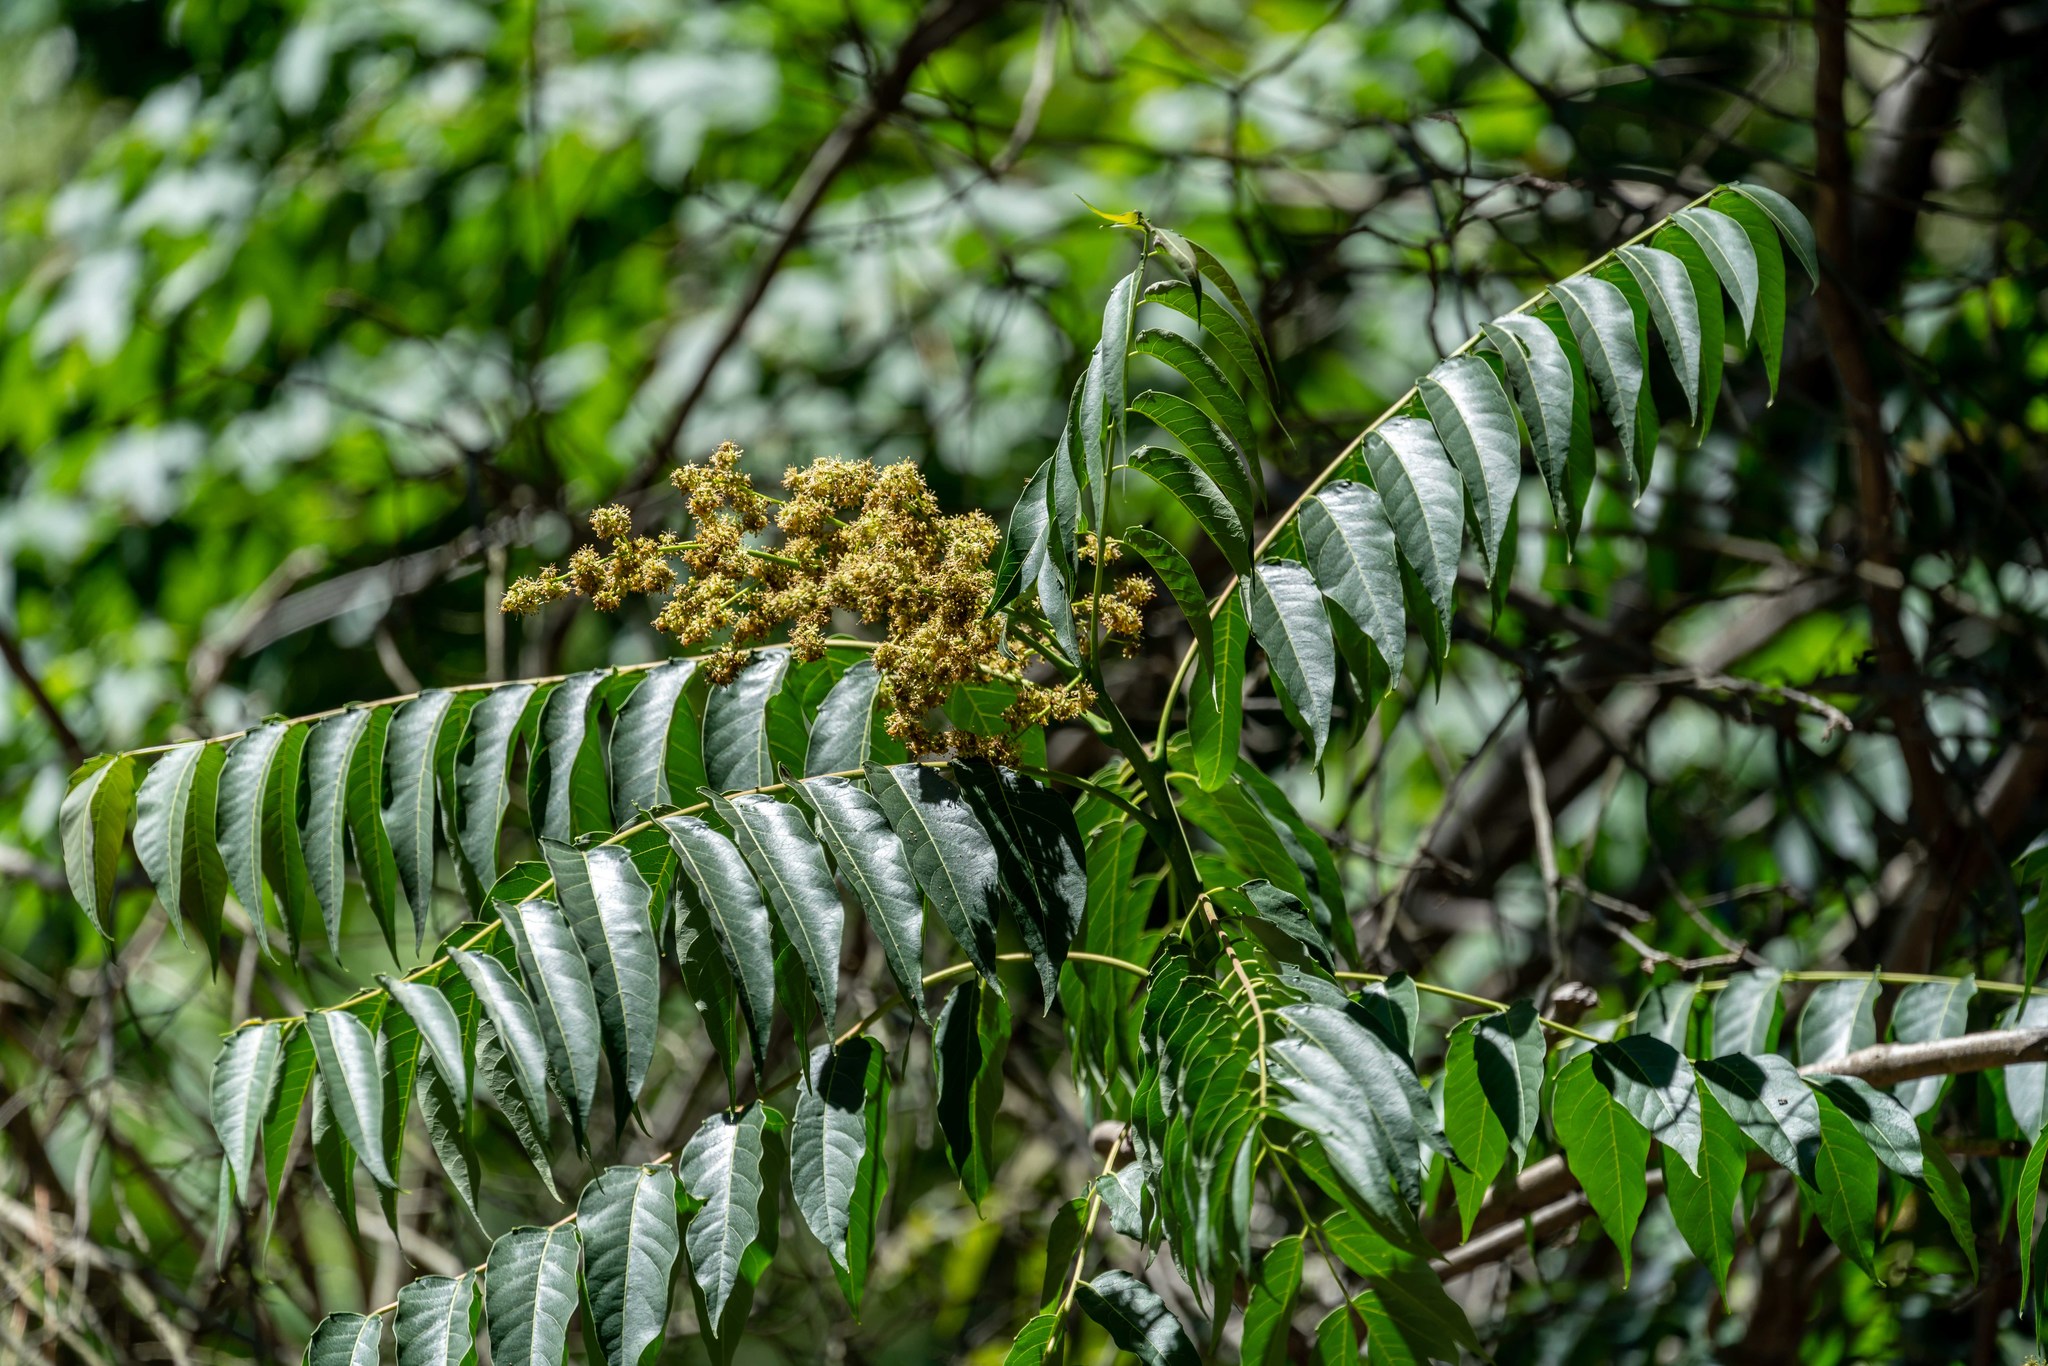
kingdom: Plantae
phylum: Tracheophyta
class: Magnoliopsida
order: Sapindales
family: Simaroubaceae
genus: Ailanthus
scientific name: Ailanthus altissima
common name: Tree-of-heaven
